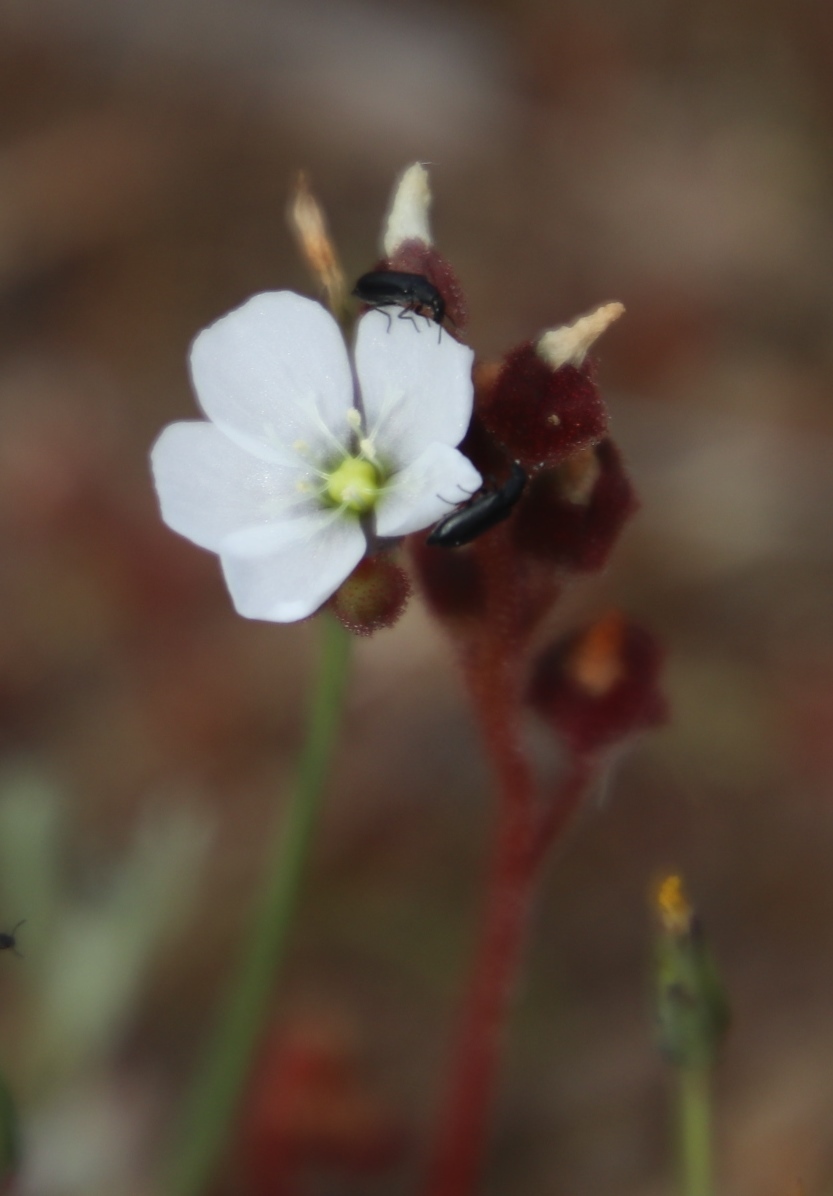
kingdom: Plantae
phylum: Tracheophyta
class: Magnoliopsida
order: Caryophyllales
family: Droseraceae
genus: Drosera
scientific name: Drosera trinervia
